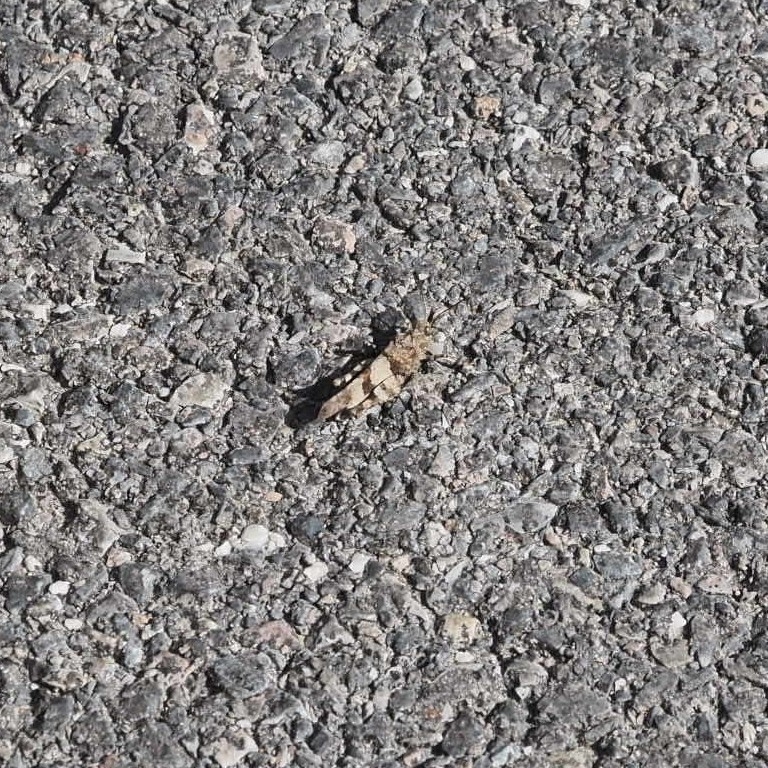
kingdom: Animalia
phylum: Arthropoda
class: Insecta
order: Orthoptera
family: Acrididae
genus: Oedipoda
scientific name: Oedipoda caerulescens
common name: Blue-winged grasshopper
